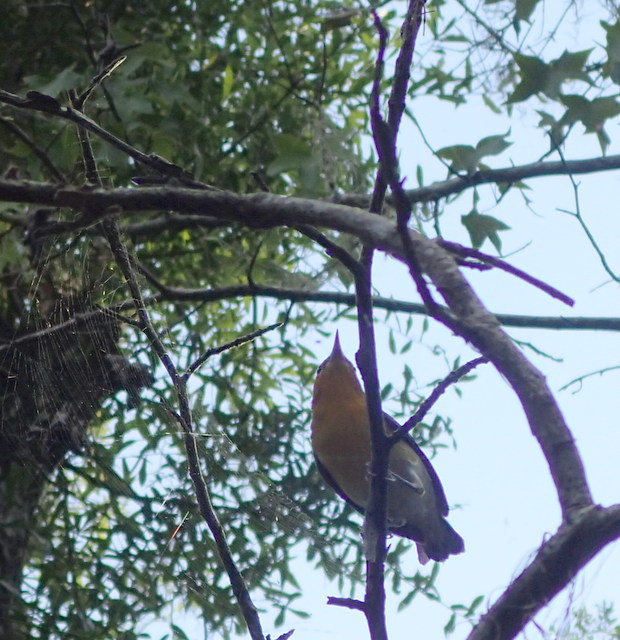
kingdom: Animalia
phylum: Chordata
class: Aves
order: Passeriformes
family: Parulidae
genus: Protonotaria
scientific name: Protonotaria citrea
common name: Prothonotary warbler
